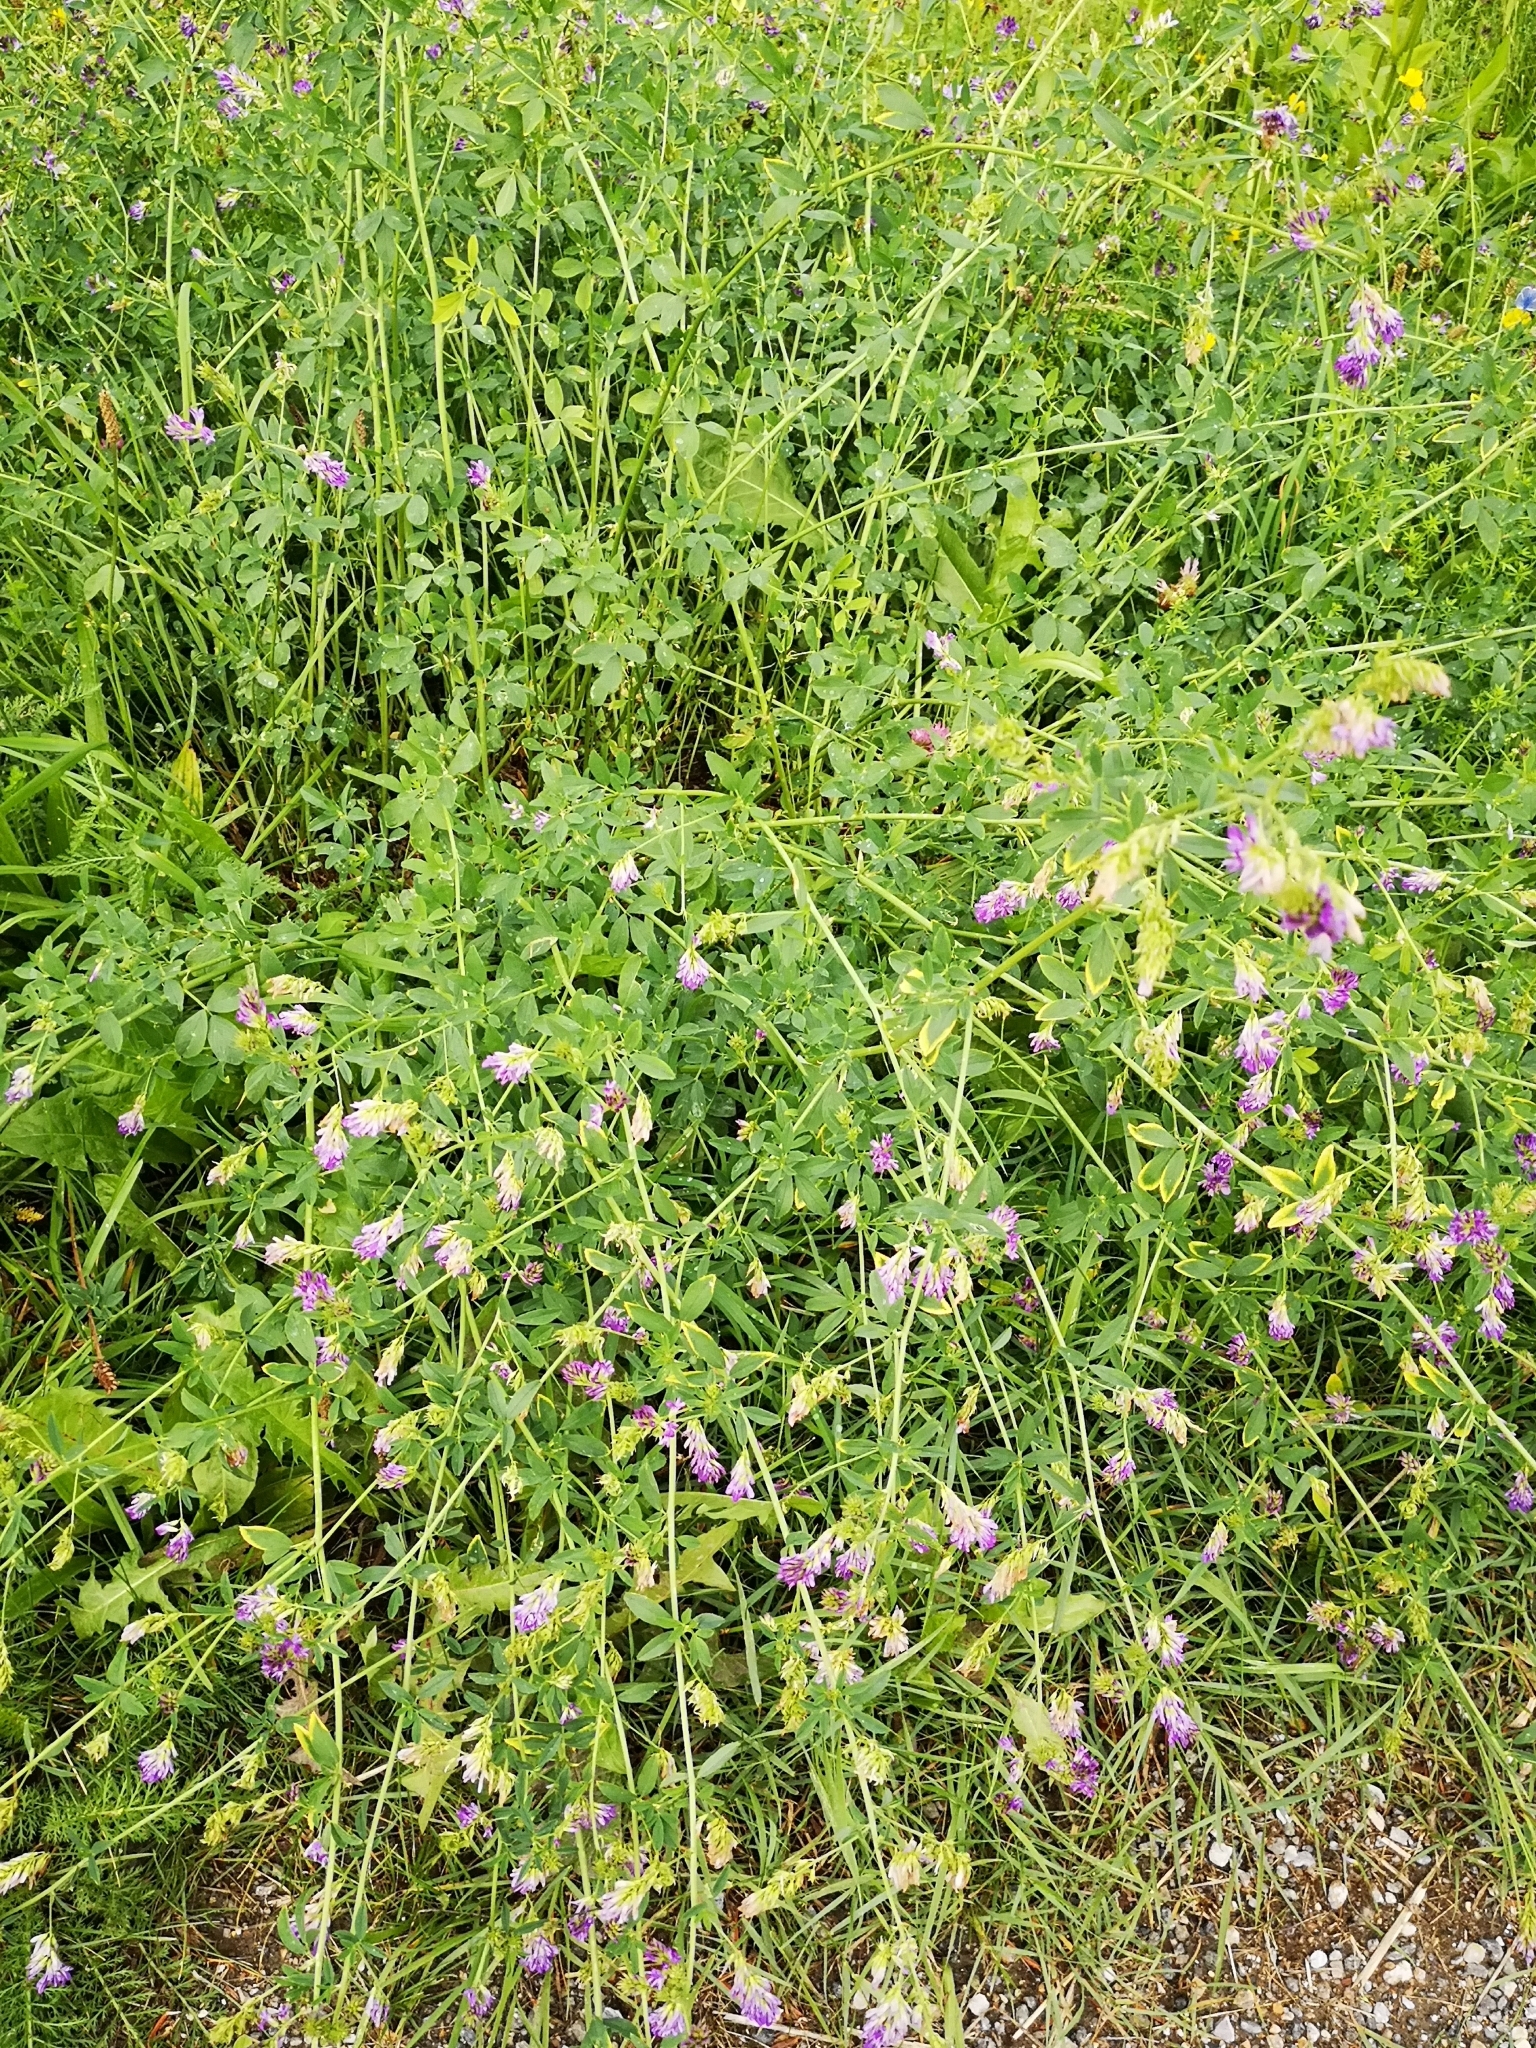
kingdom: Plantae
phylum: Tracheophyta
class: Magnoliopsida
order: Fabales
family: Fabaceae
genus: Medicago
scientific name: Medicago
